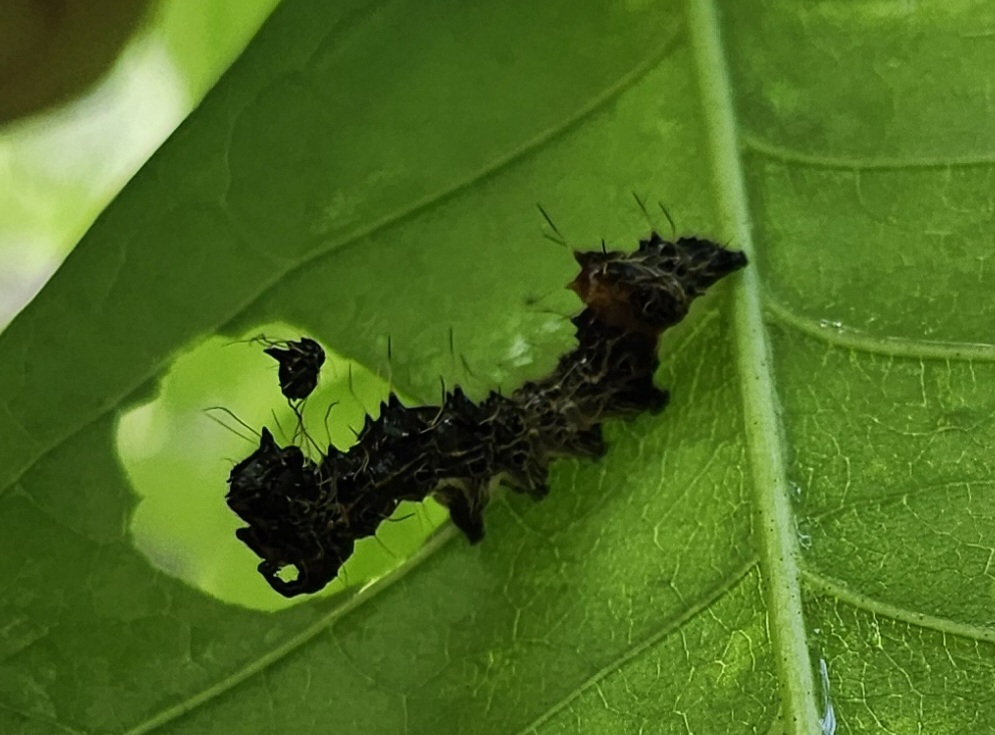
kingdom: Animalia
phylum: Arthropoda
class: Insecta
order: Lepidoptera
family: Noctuidae
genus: Harrisimemna
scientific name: Harrisimemna trisignata
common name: Harris threespot
